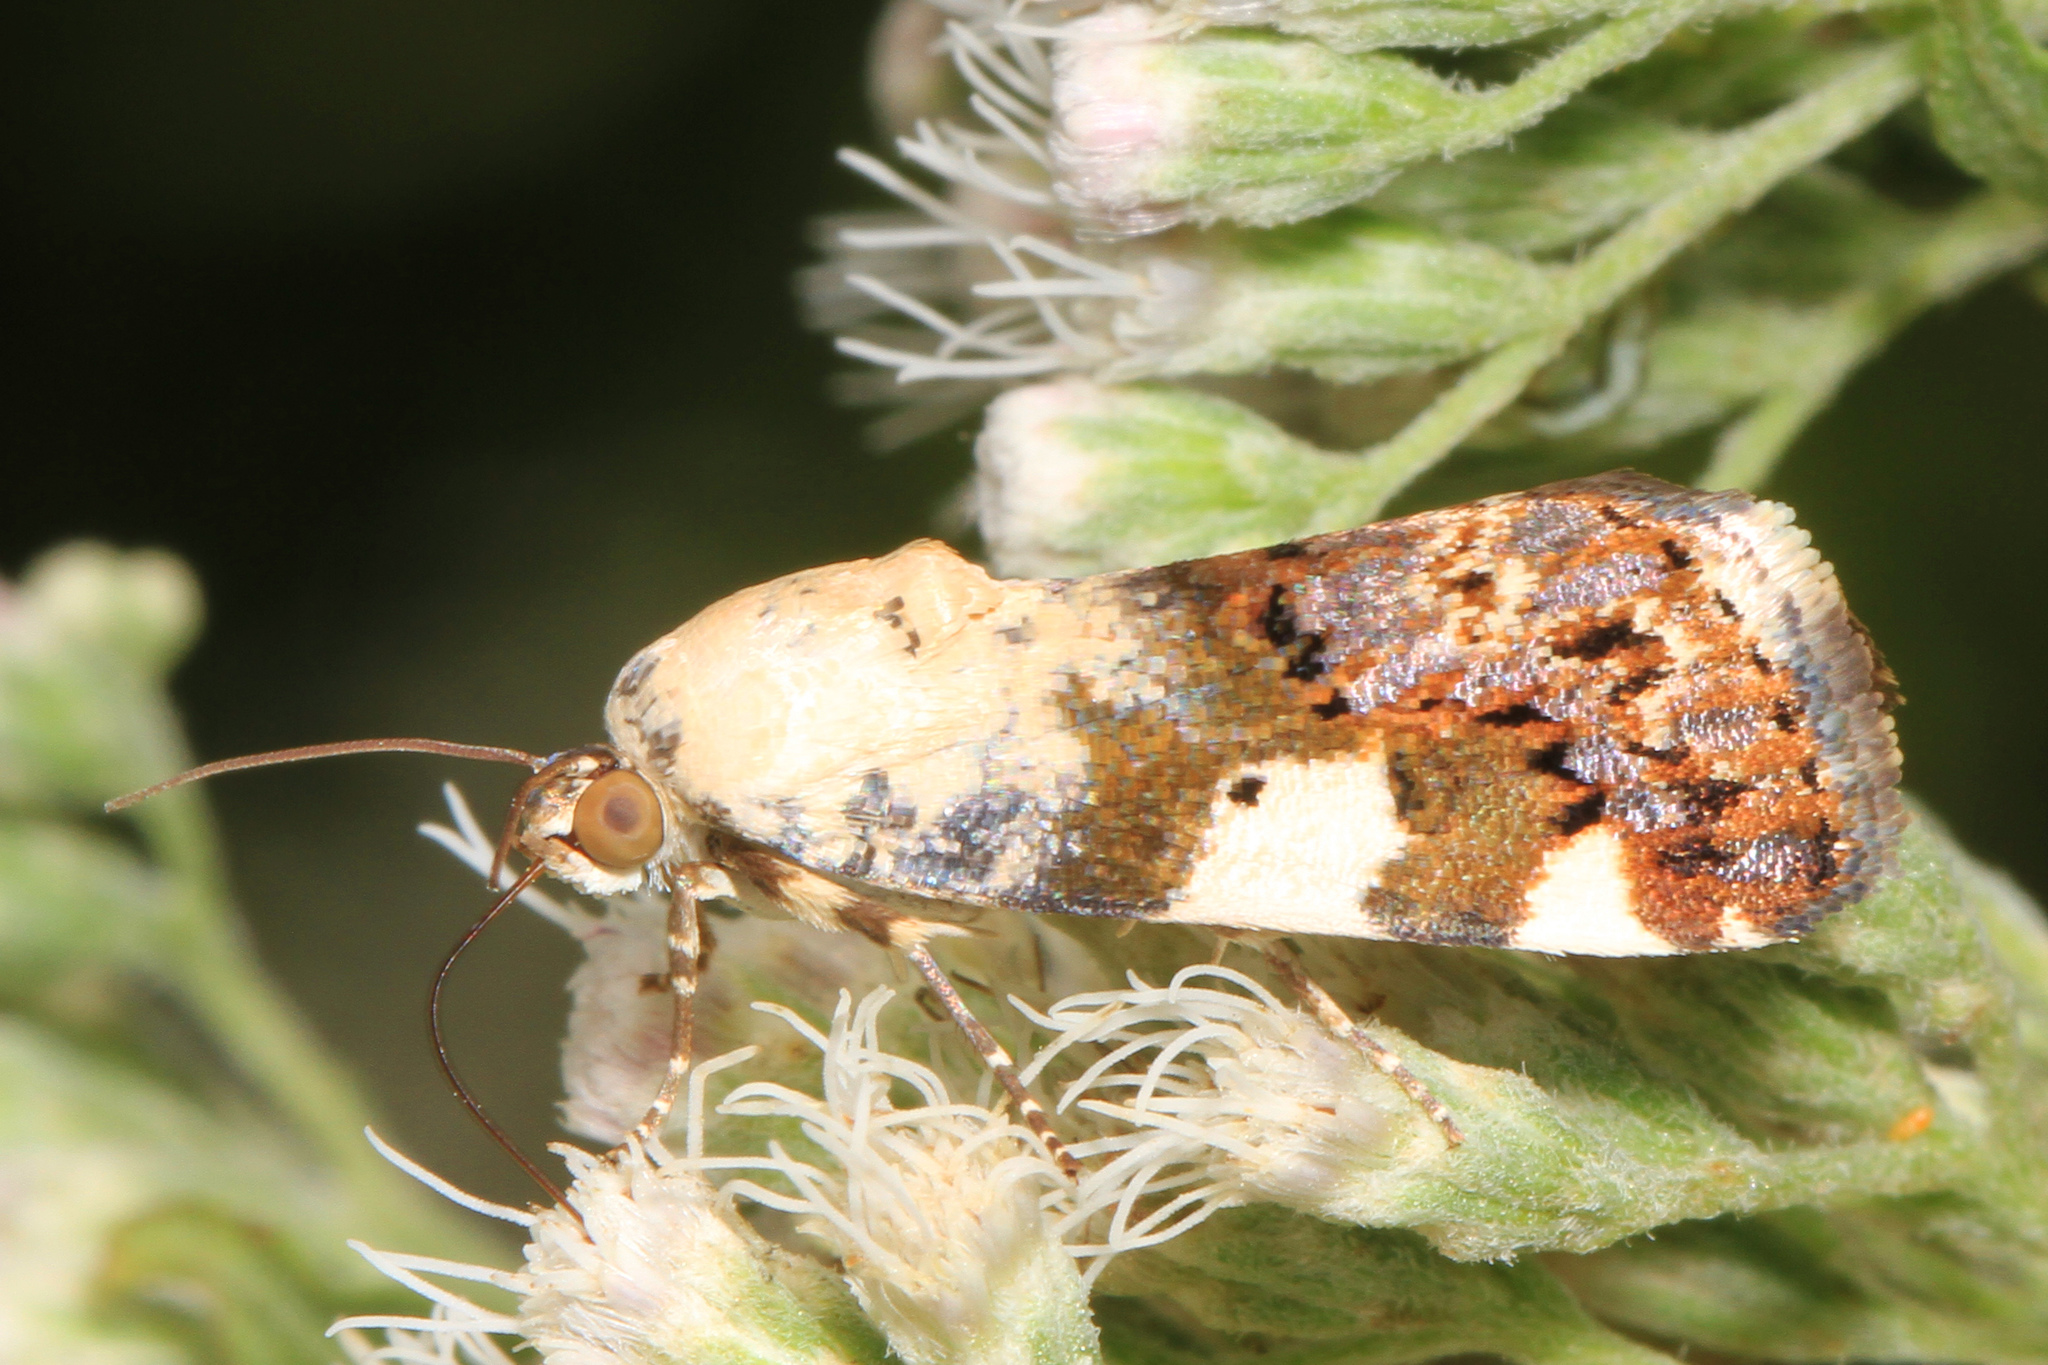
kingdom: Animalia
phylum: Arthropoda
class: Insecta
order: Lepidoptera
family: Noctuidae
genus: Acontia
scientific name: Acontia aprica
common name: Nun
